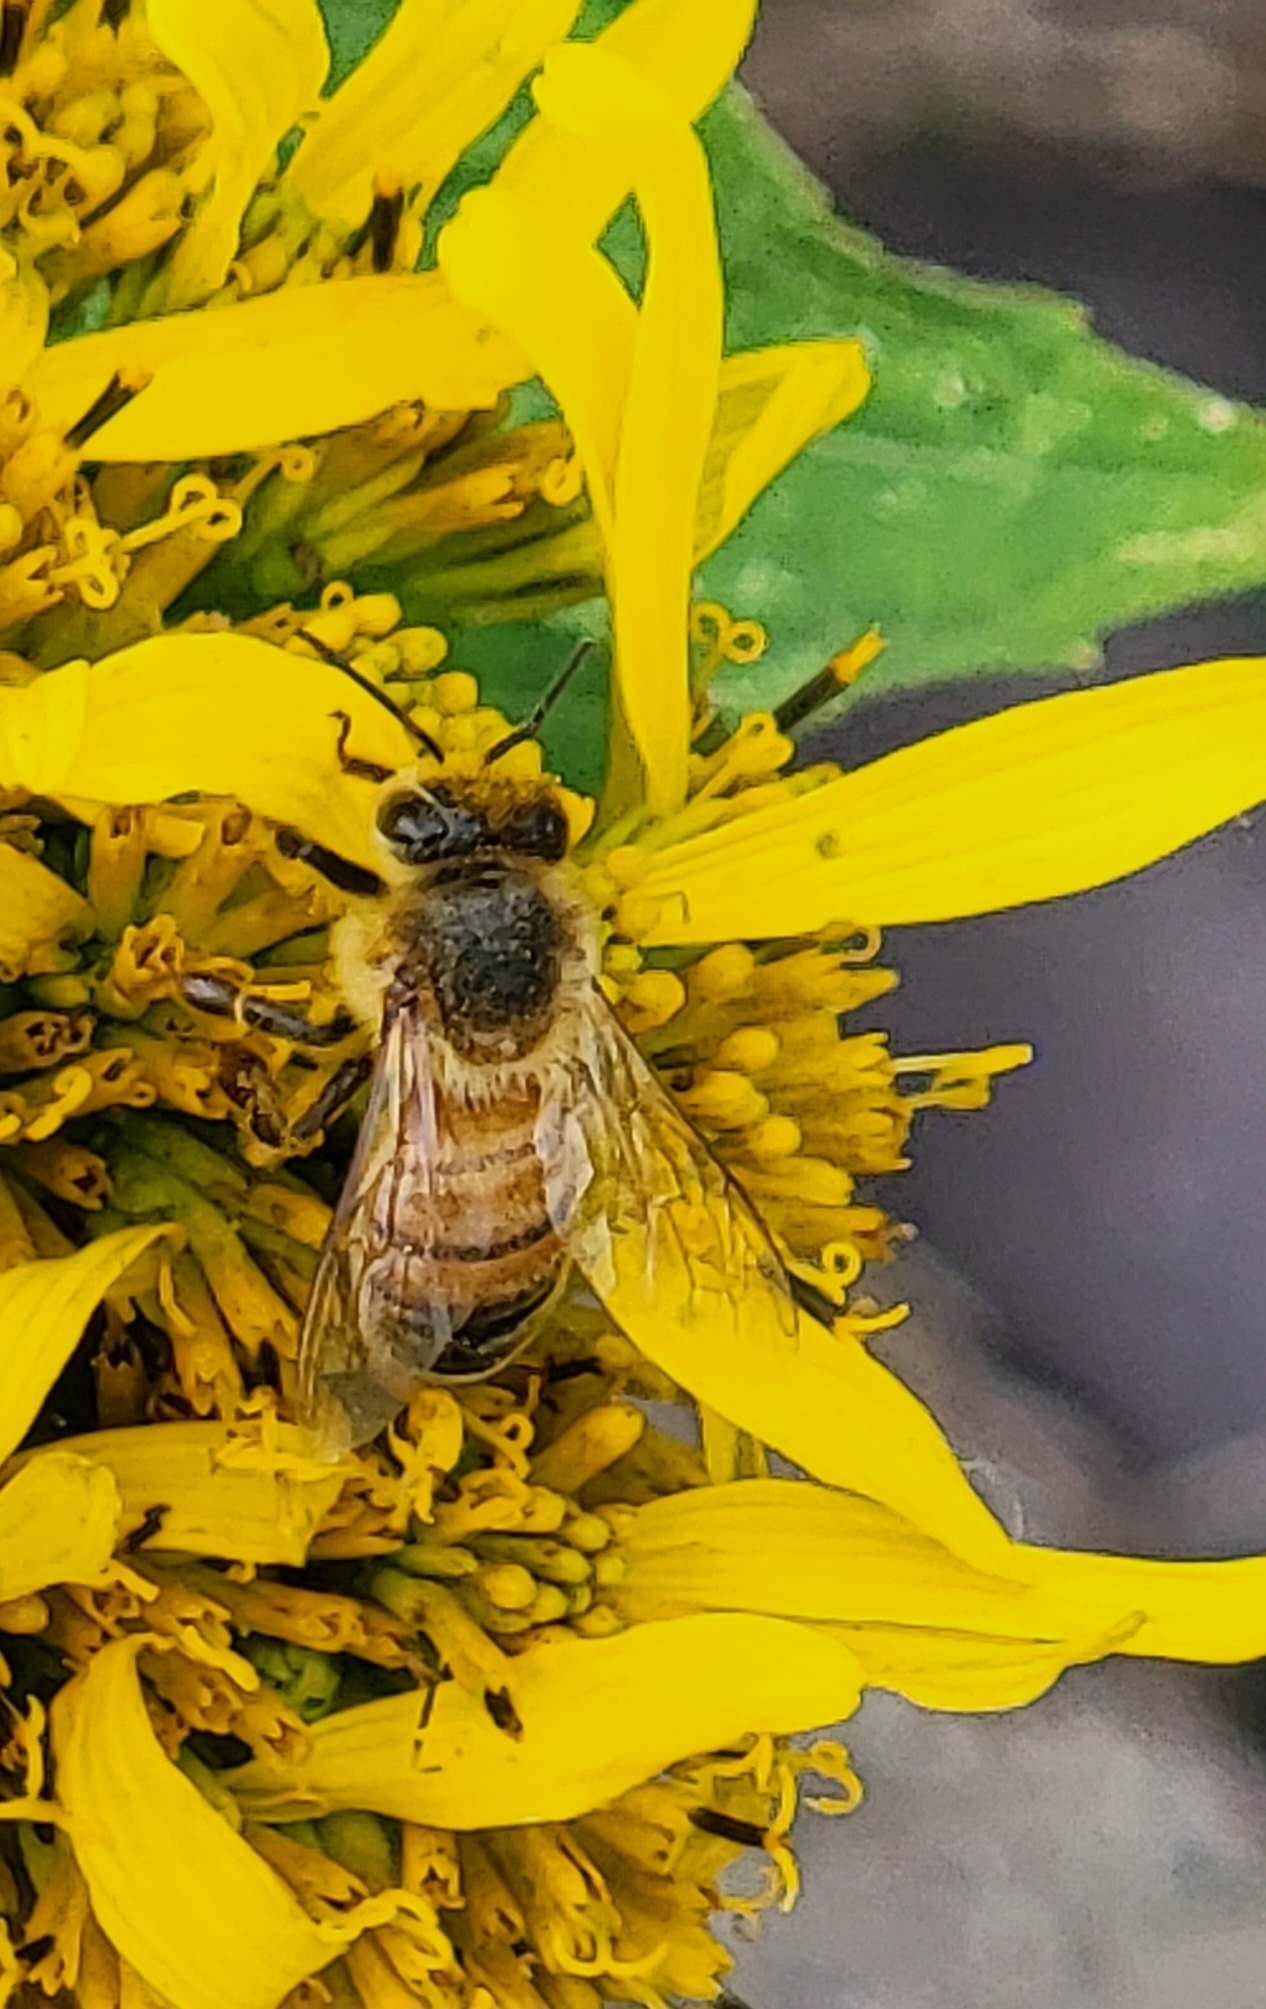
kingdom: Animalia
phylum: Arthropoda
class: Insecta
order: Hymenoptera
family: Apidae
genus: Apis
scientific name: Apis mellifera
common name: Honey bee
